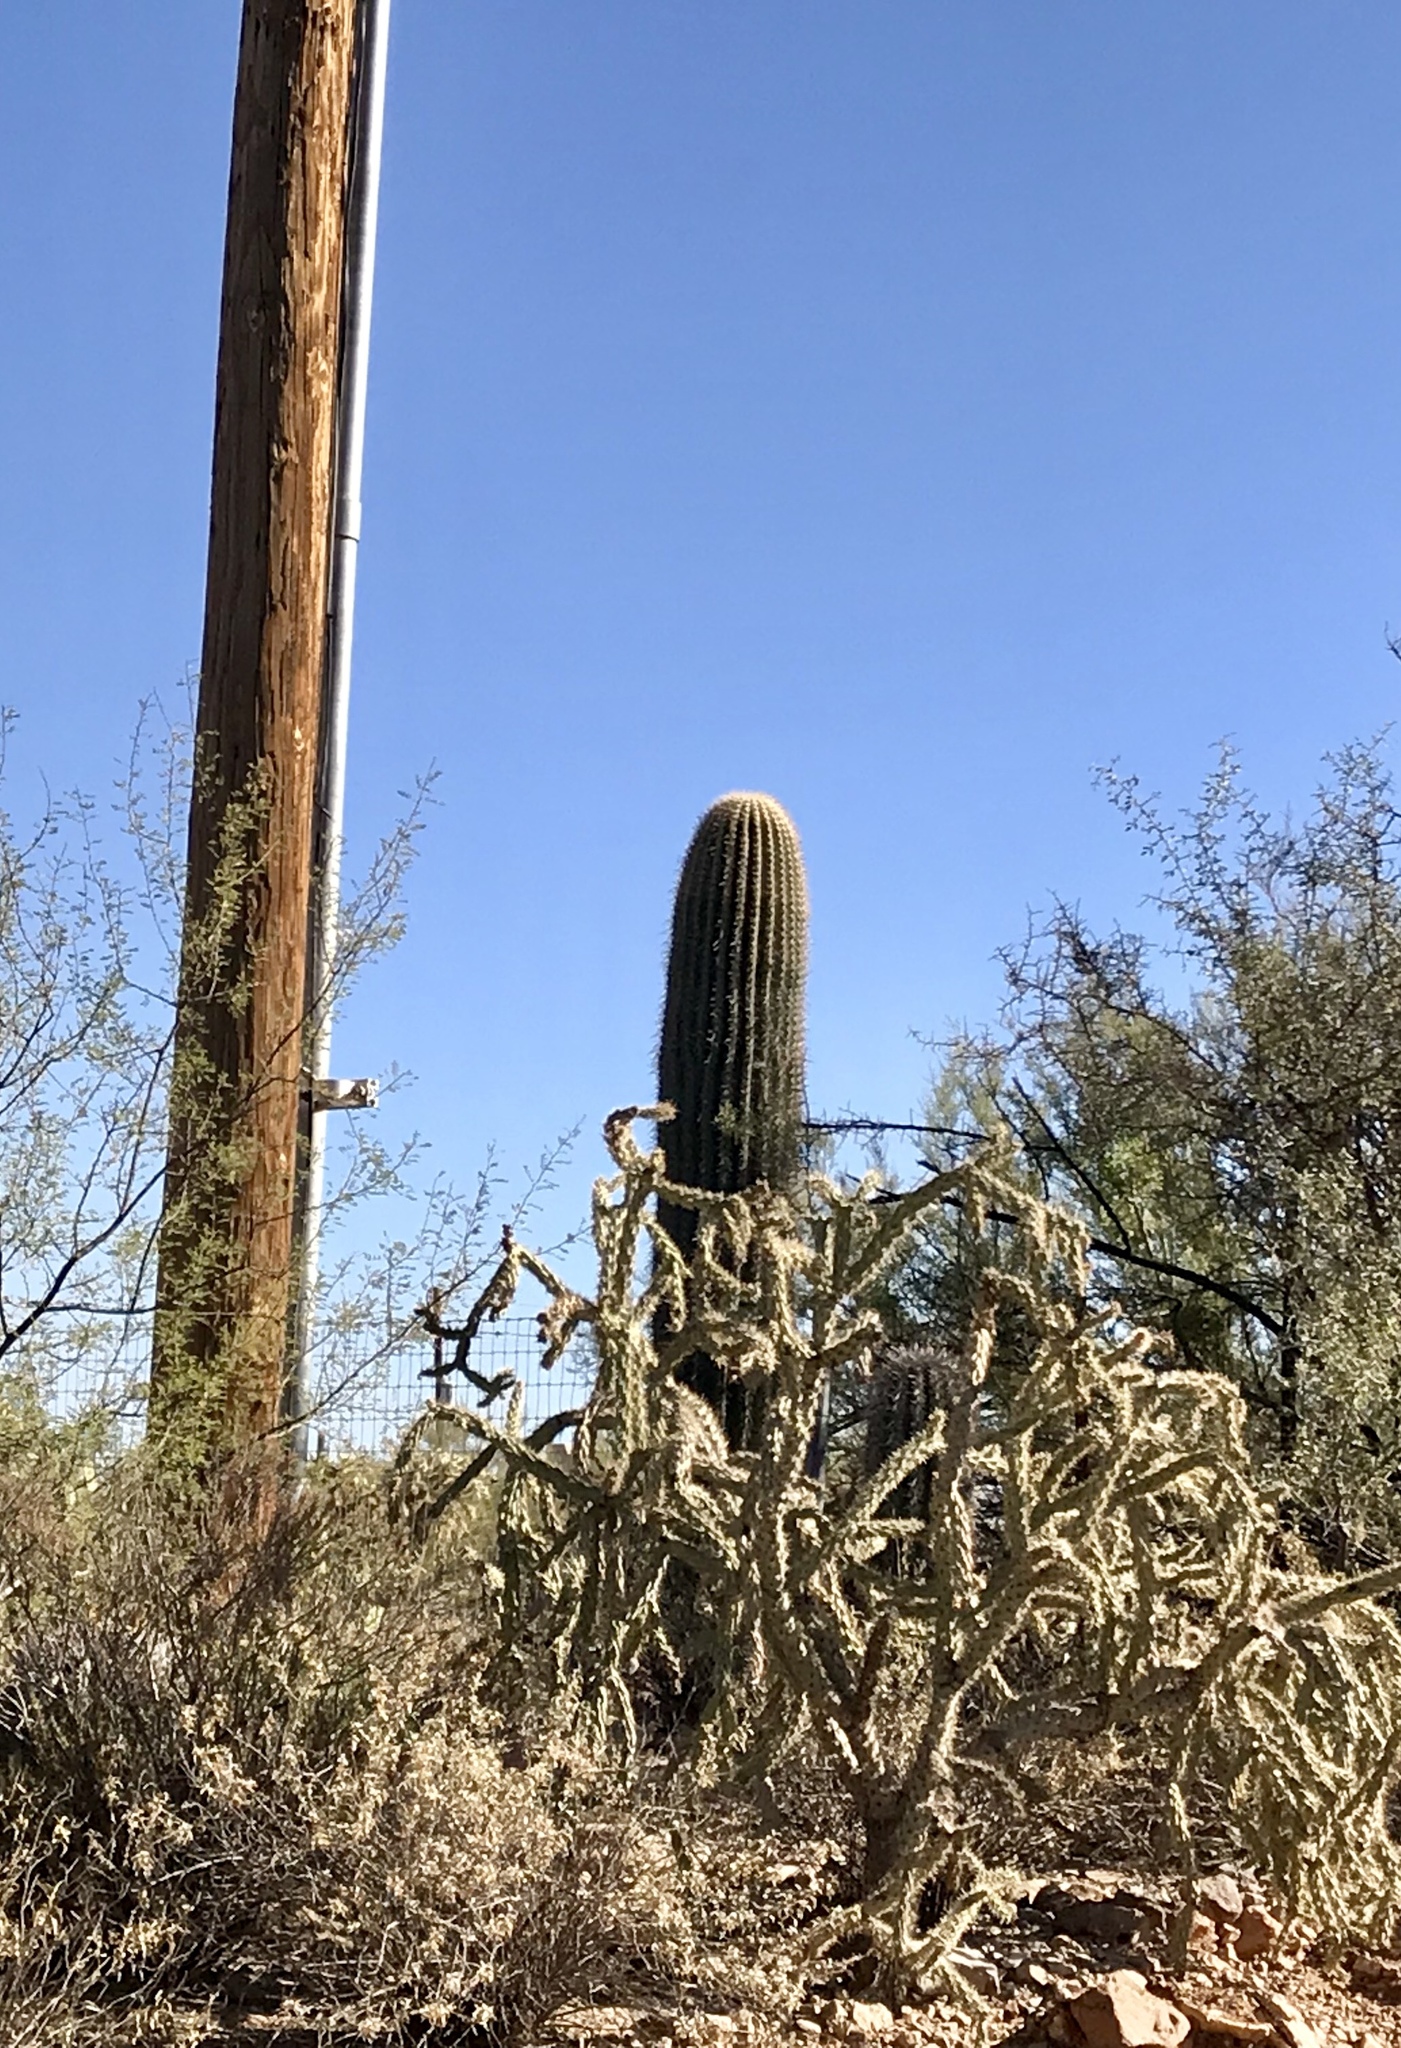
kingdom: Plantae
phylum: Tracheophyta
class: Magnoliopsida
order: Caryophyllales
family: Cactaceae
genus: Carnegiea
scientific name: Carnegiea gigantea
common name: Saguaro
